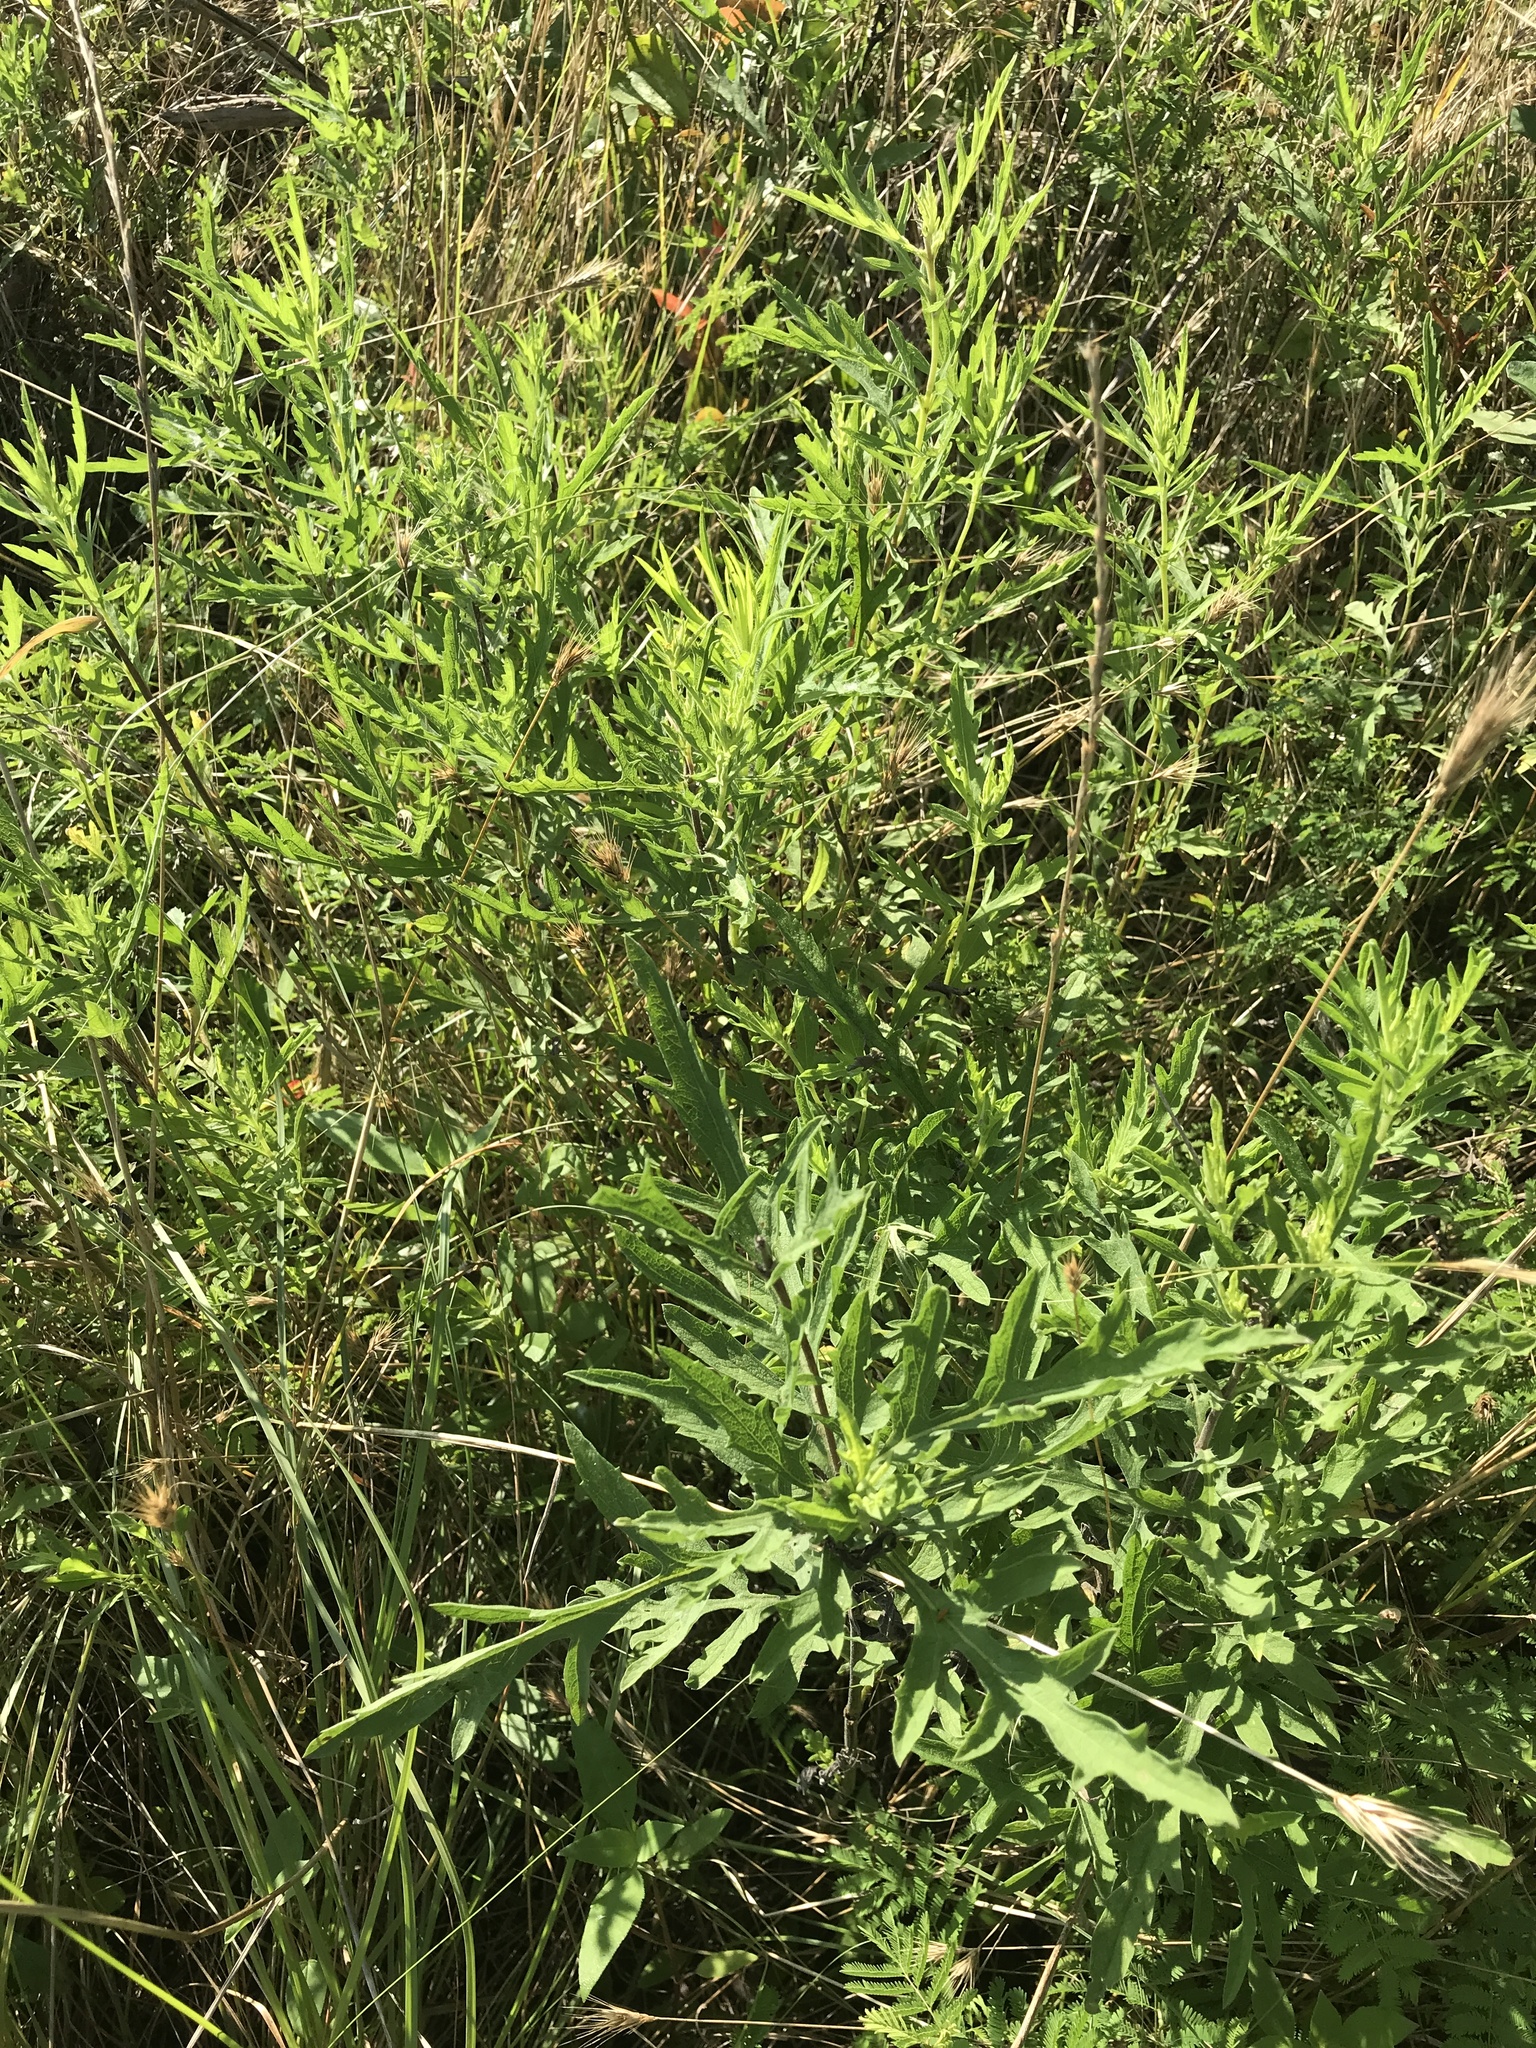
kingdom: Plantae
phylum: Tracheophyta
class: Magnoliopsida
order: Asterales
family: Asteraceae
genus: Ambrosia
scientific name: Ambrosia psilostachya
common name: Perennial ragweed
